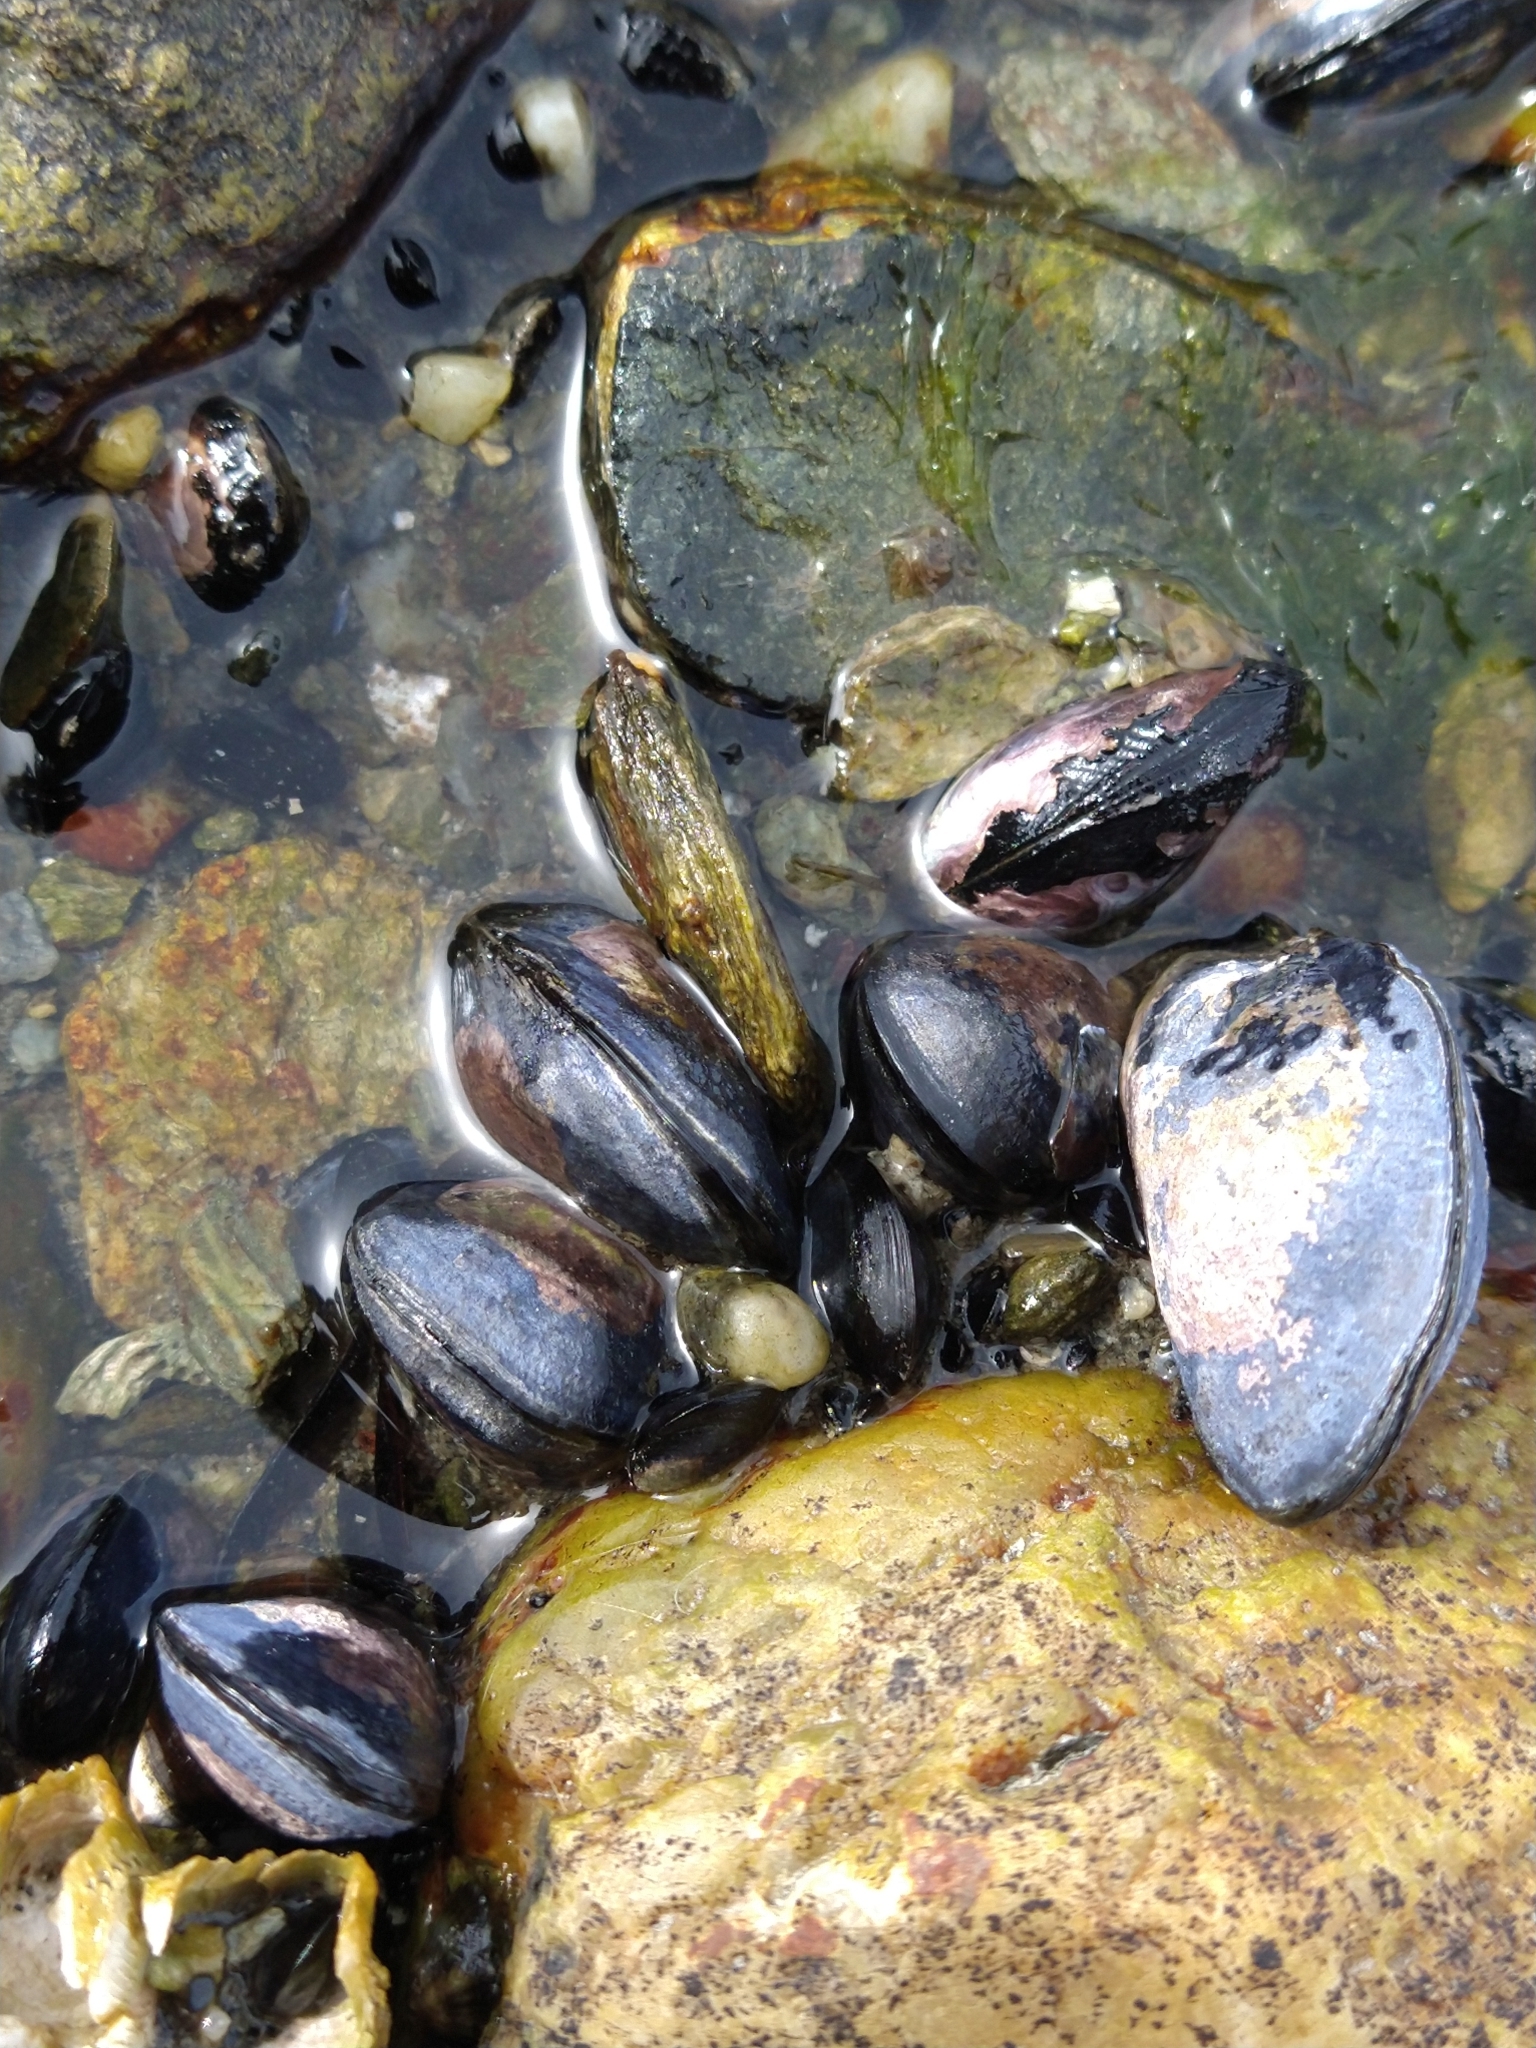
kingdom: Animalia
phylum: Mollusca
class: Bivalvia
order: Mytilida
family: Mytilidae
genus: Mytilus
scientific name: Mytilus chilensis
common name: Chilean mussel
